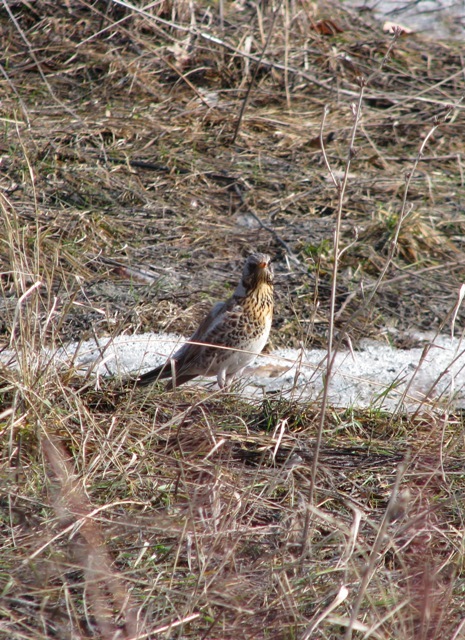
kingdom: Animalia
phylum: Chordata
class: Aves
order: Passeriformes
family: Turdidae
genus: Turdus
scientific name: Turdus pilaris
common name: Fieldfare
